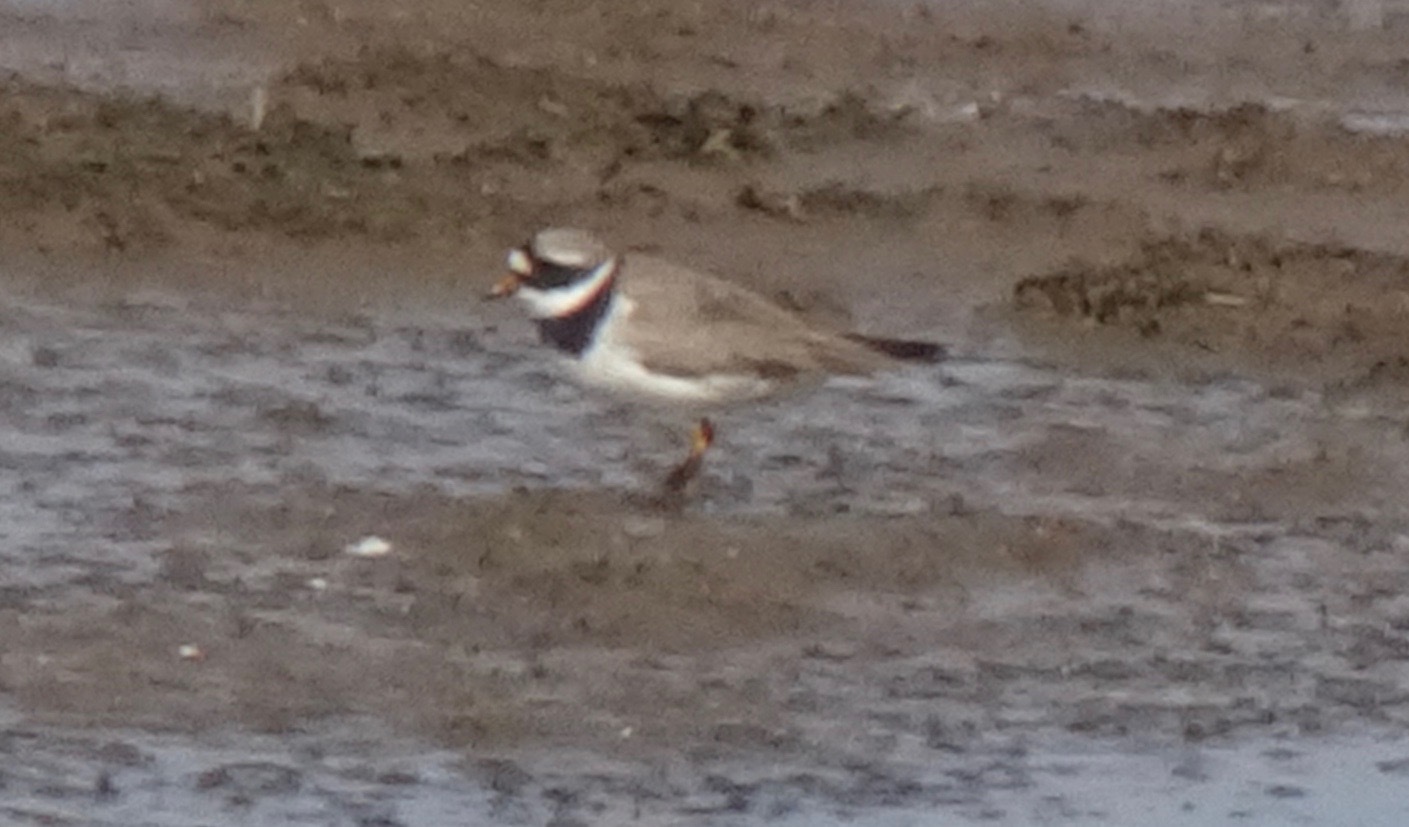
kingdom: Animalia
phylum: Chordata
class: Aves
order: Charadriiformes
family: Charadriidae
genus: Charadrius
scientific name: Charadrius hiaticula
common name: Common ringed plover
